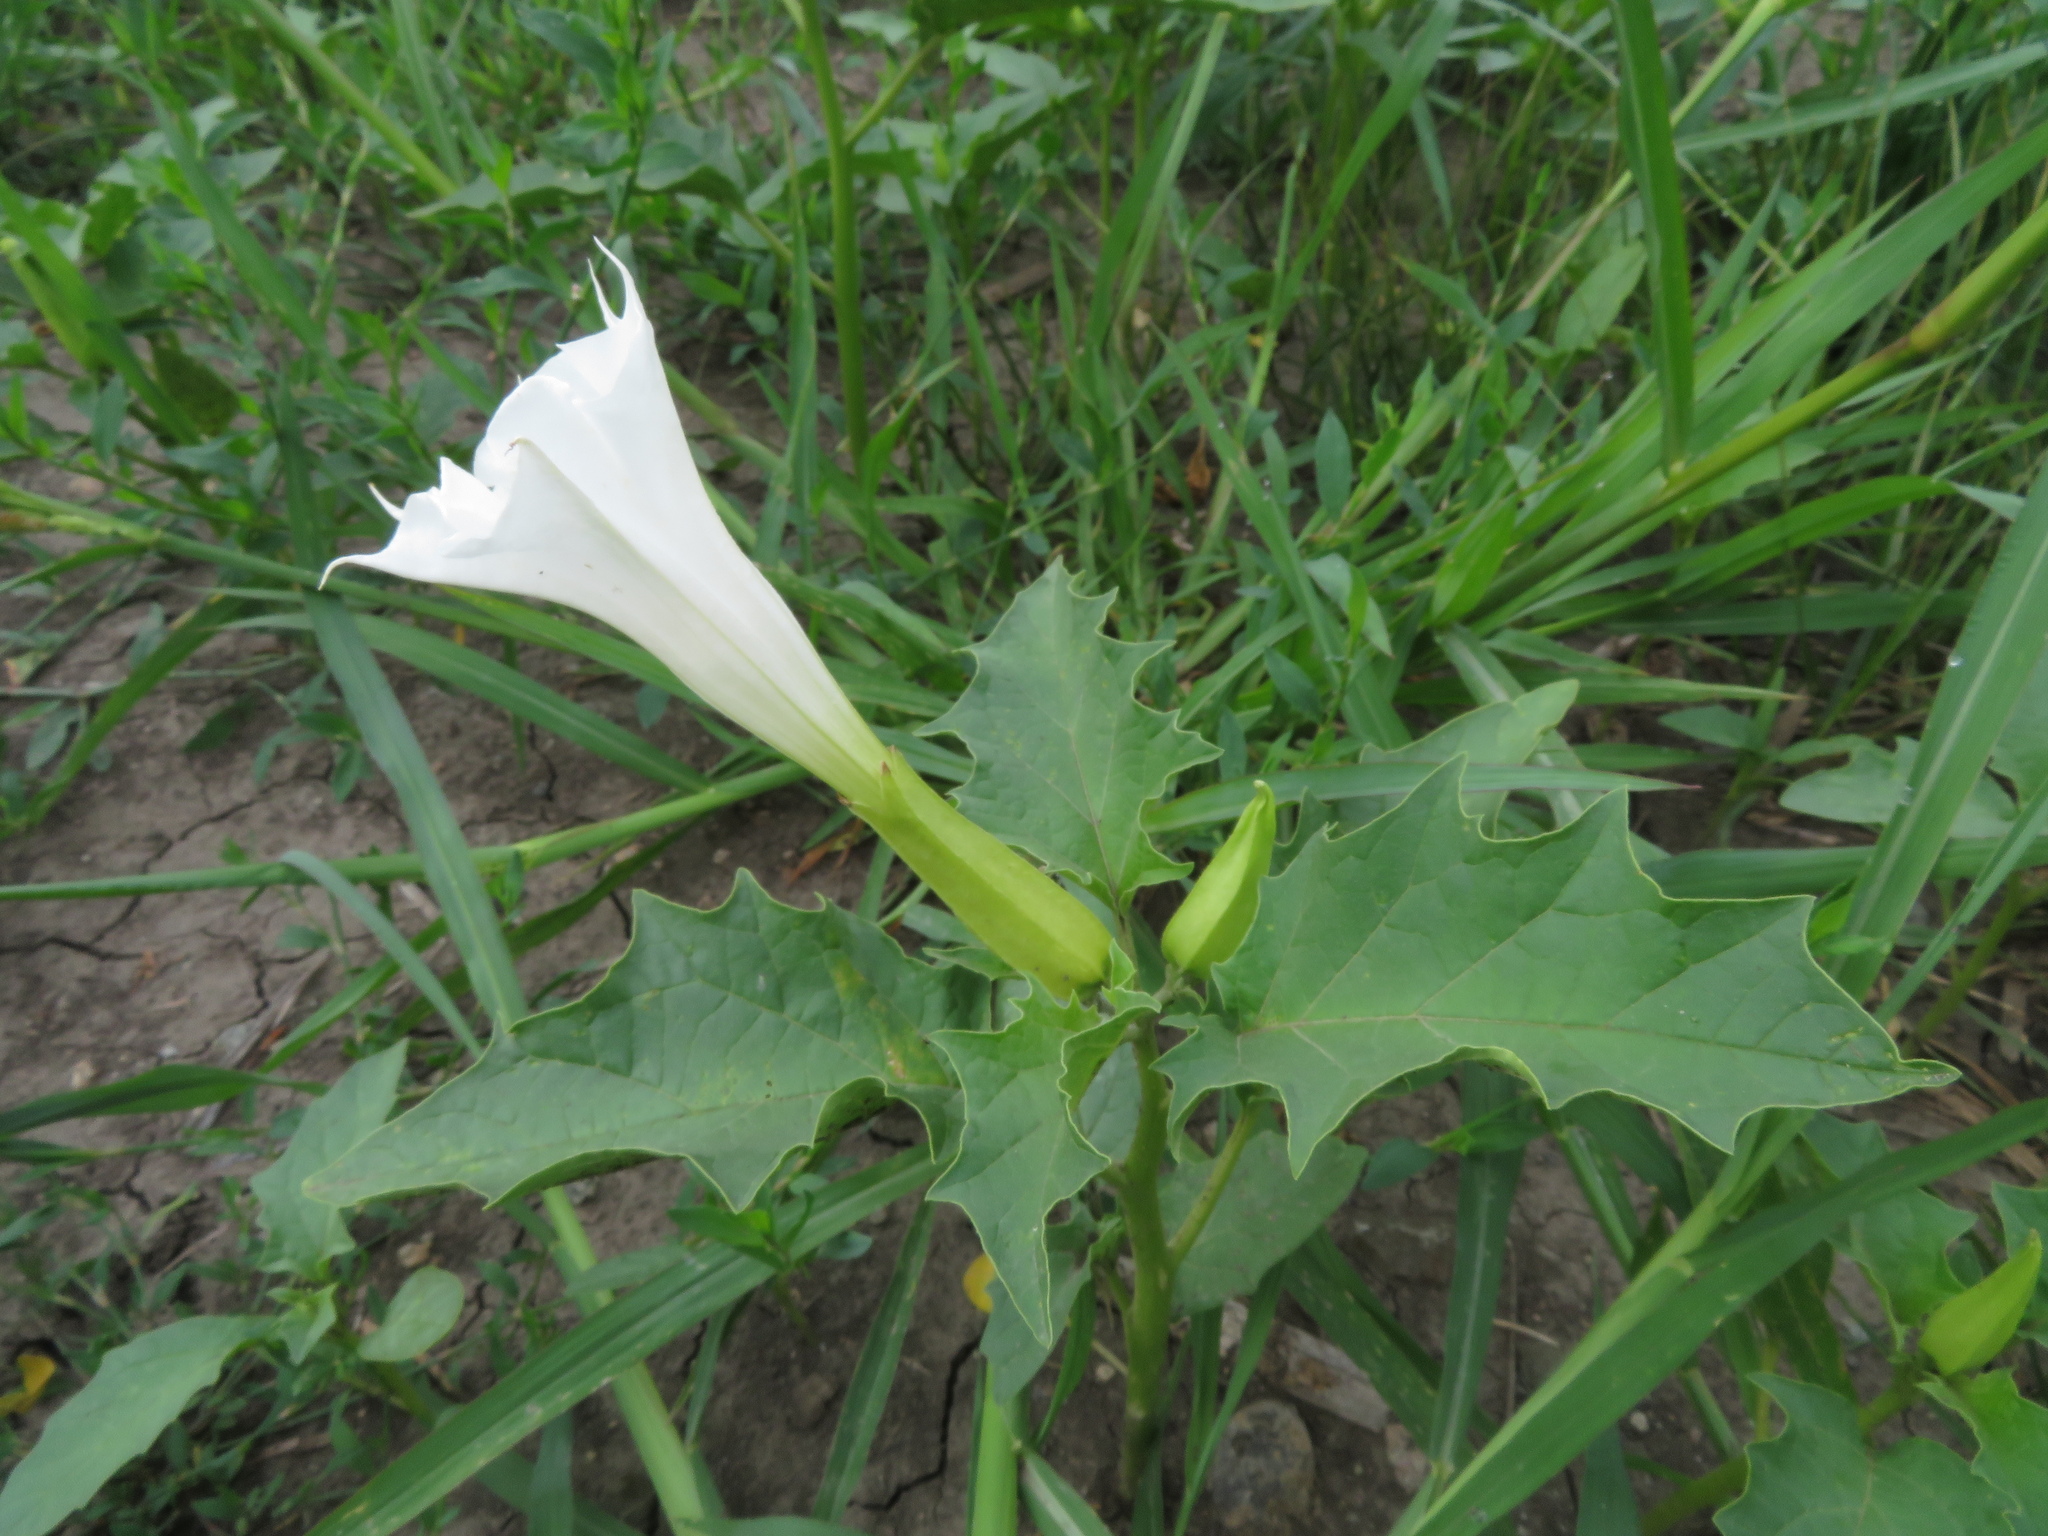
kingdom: Plantae
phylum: Tracheophyta
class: Magnoliopsida
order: Solanales
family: Solanaceae
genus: Datura
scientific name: Datura stramonium
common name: Thorn-apple
